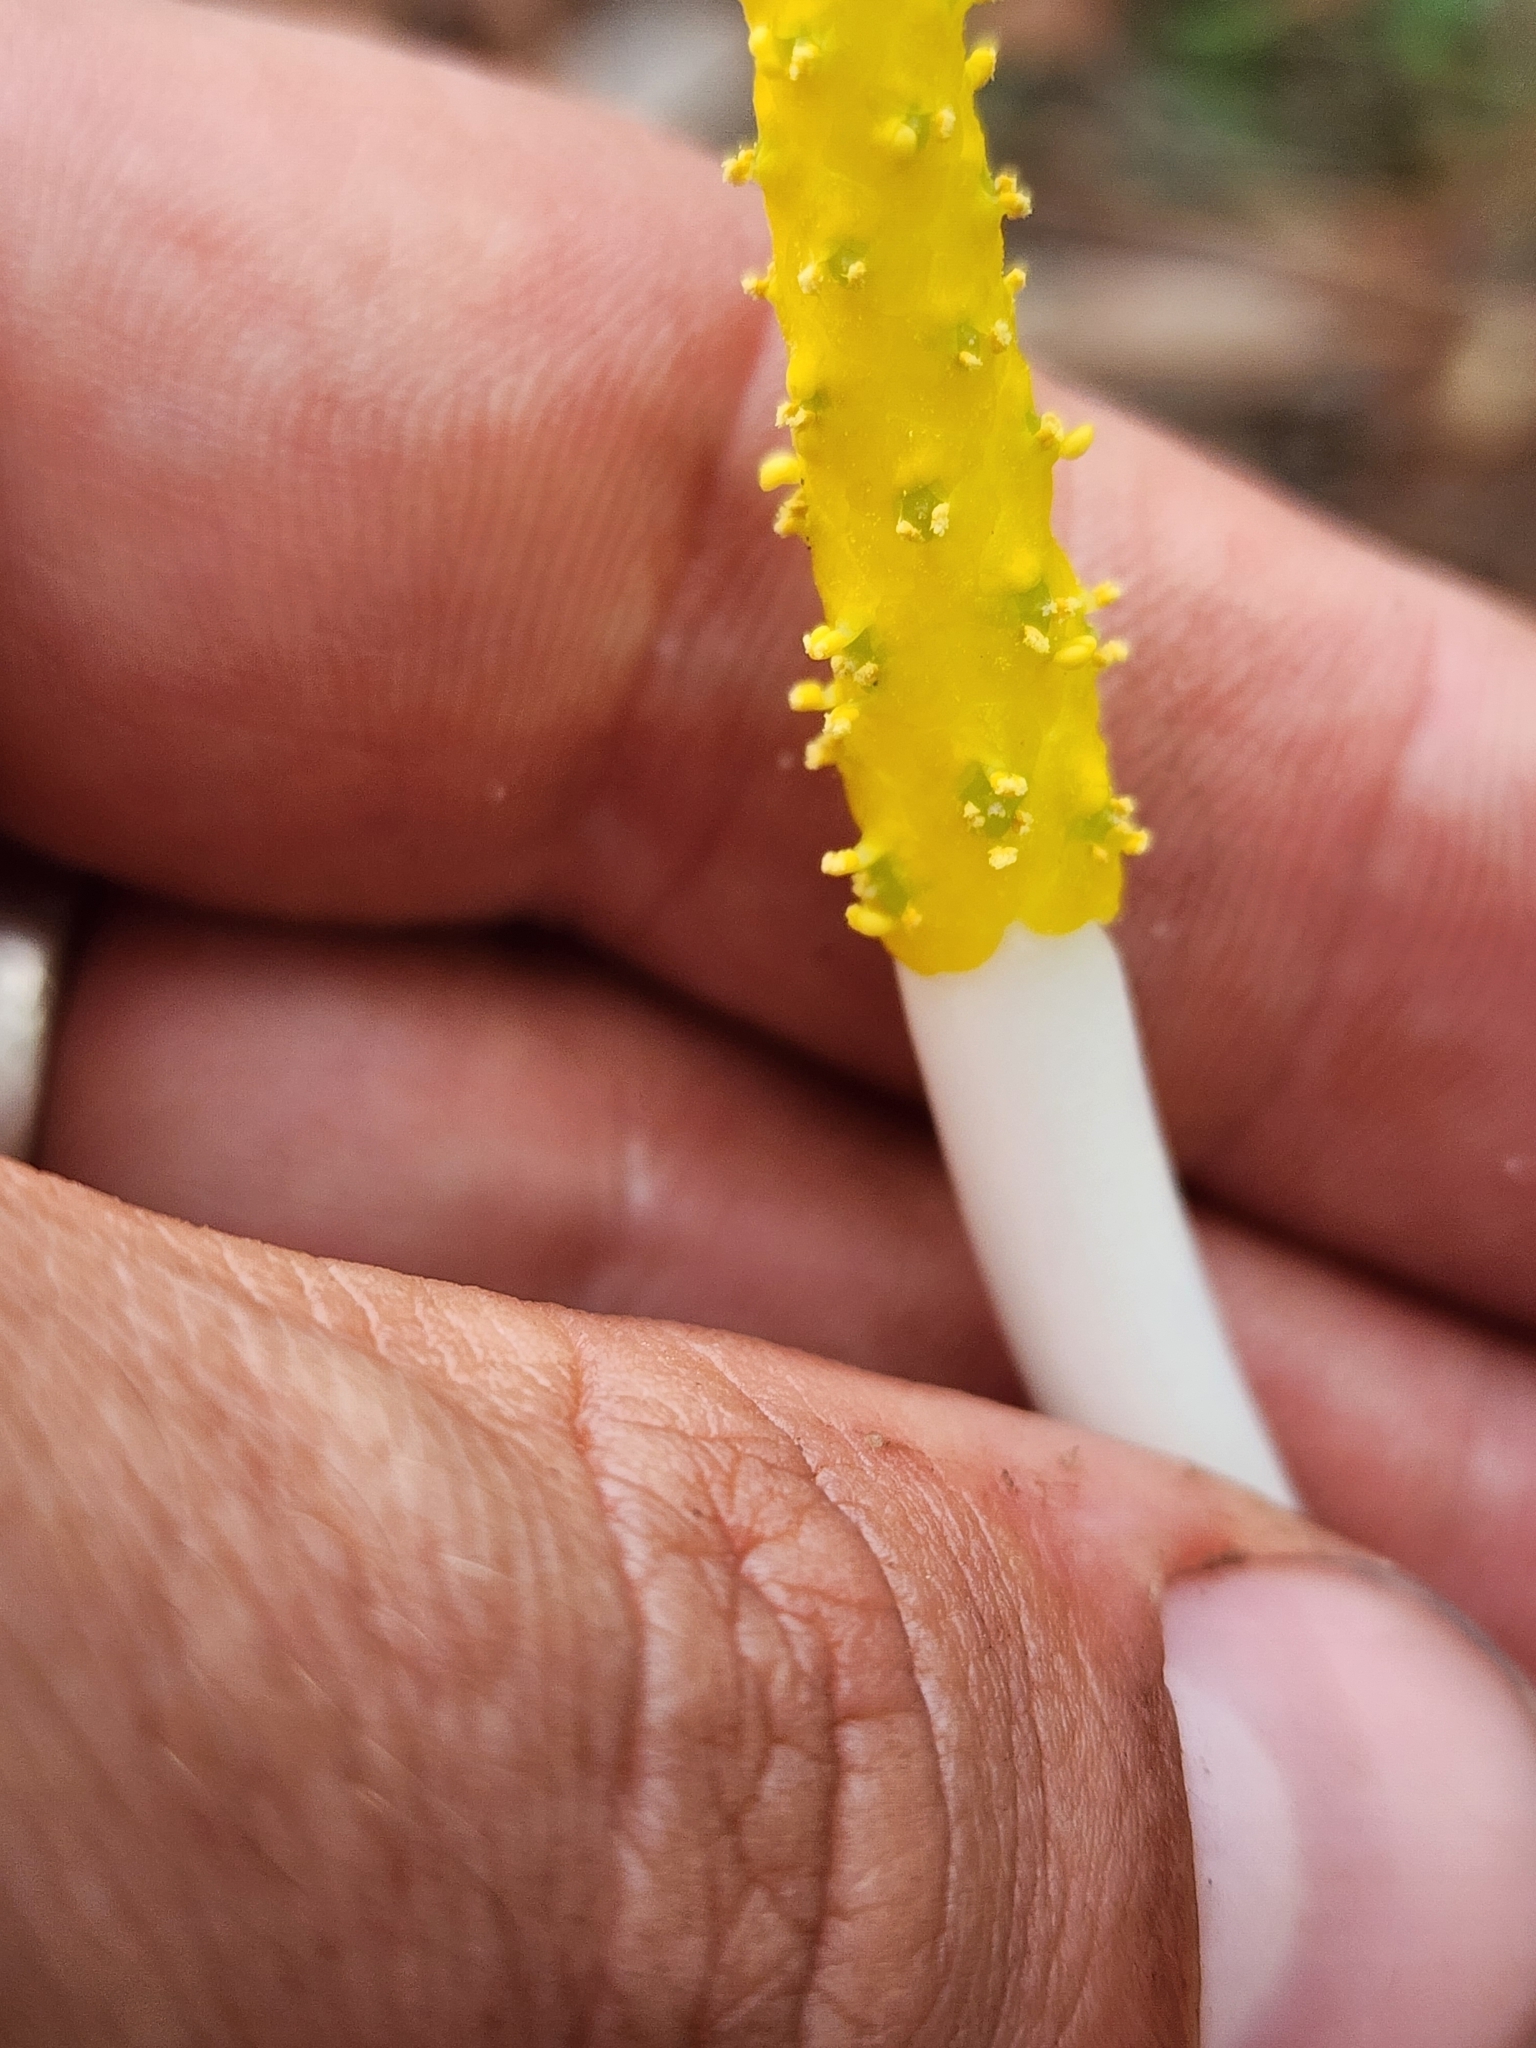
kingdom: Plantae
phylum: Tracheophyta
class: Liliopsida
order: Alismatales
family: Araceae
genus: Orontium
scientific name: Orontium aquaticum
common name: Golden-club
